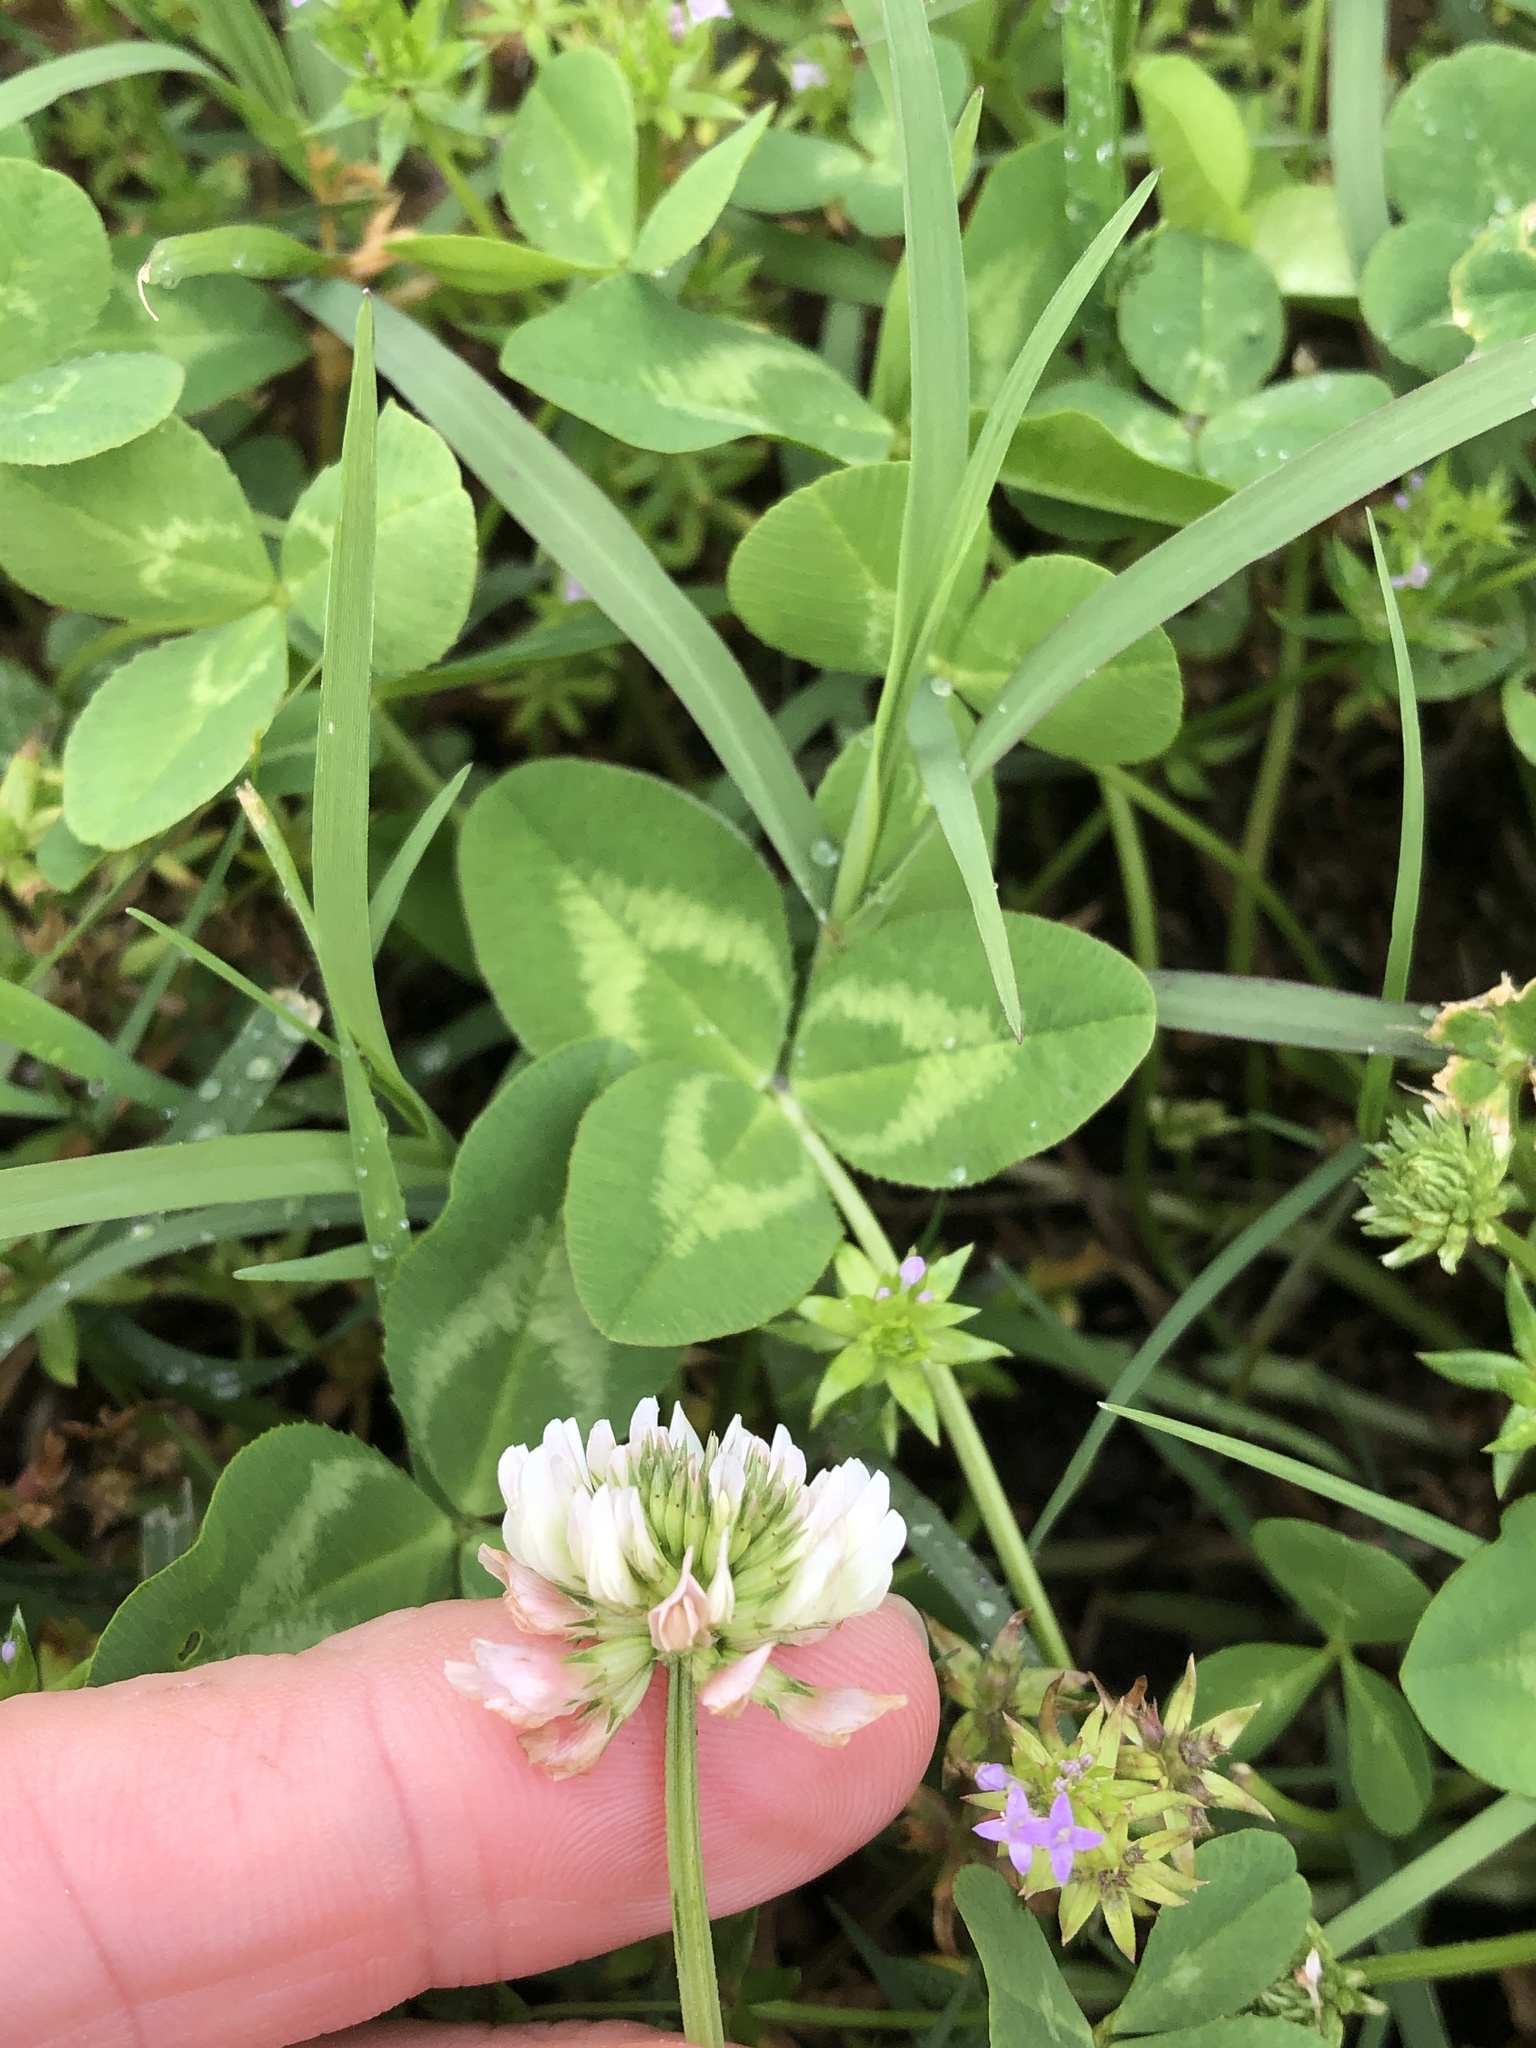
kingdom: Plantae
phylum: Tracheophyta
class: Magnoliopsida
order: Fabales
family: Fabaceae
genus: Trifolium
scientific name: Trifolium repens
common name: White clover
